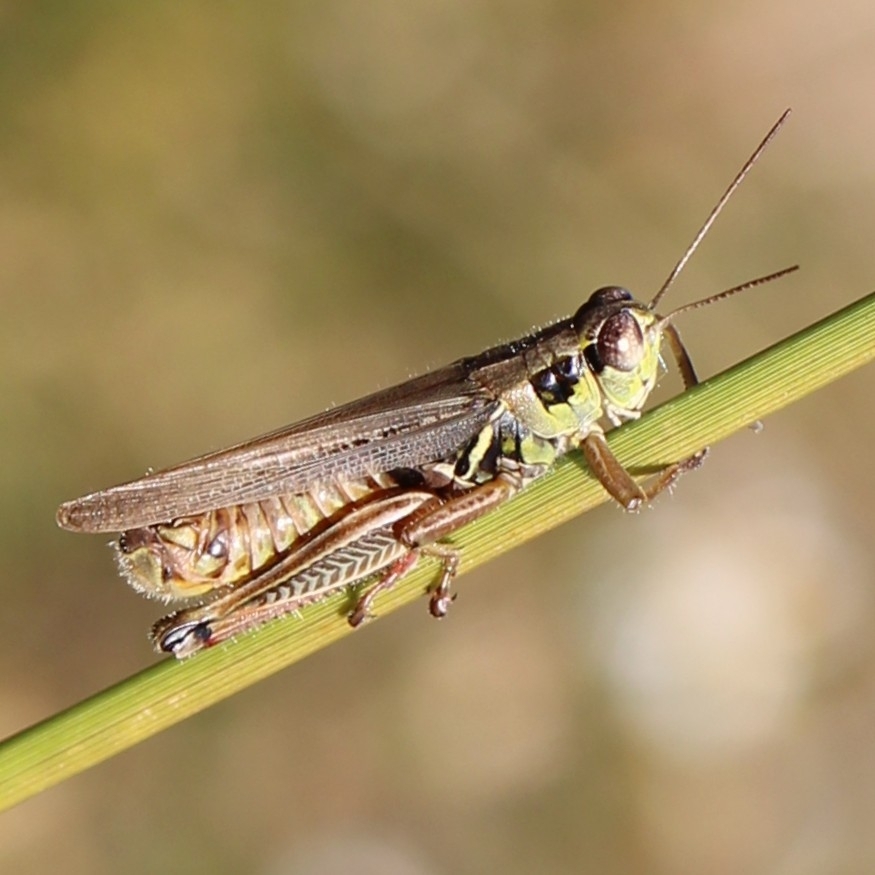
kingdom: Animalia
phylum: Arthropoda
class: Insecta
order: Orthoptera
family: Acrididae
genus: Melanoplus
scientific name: Melanoplus femurrubrum
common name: Red-legged grasshopper
